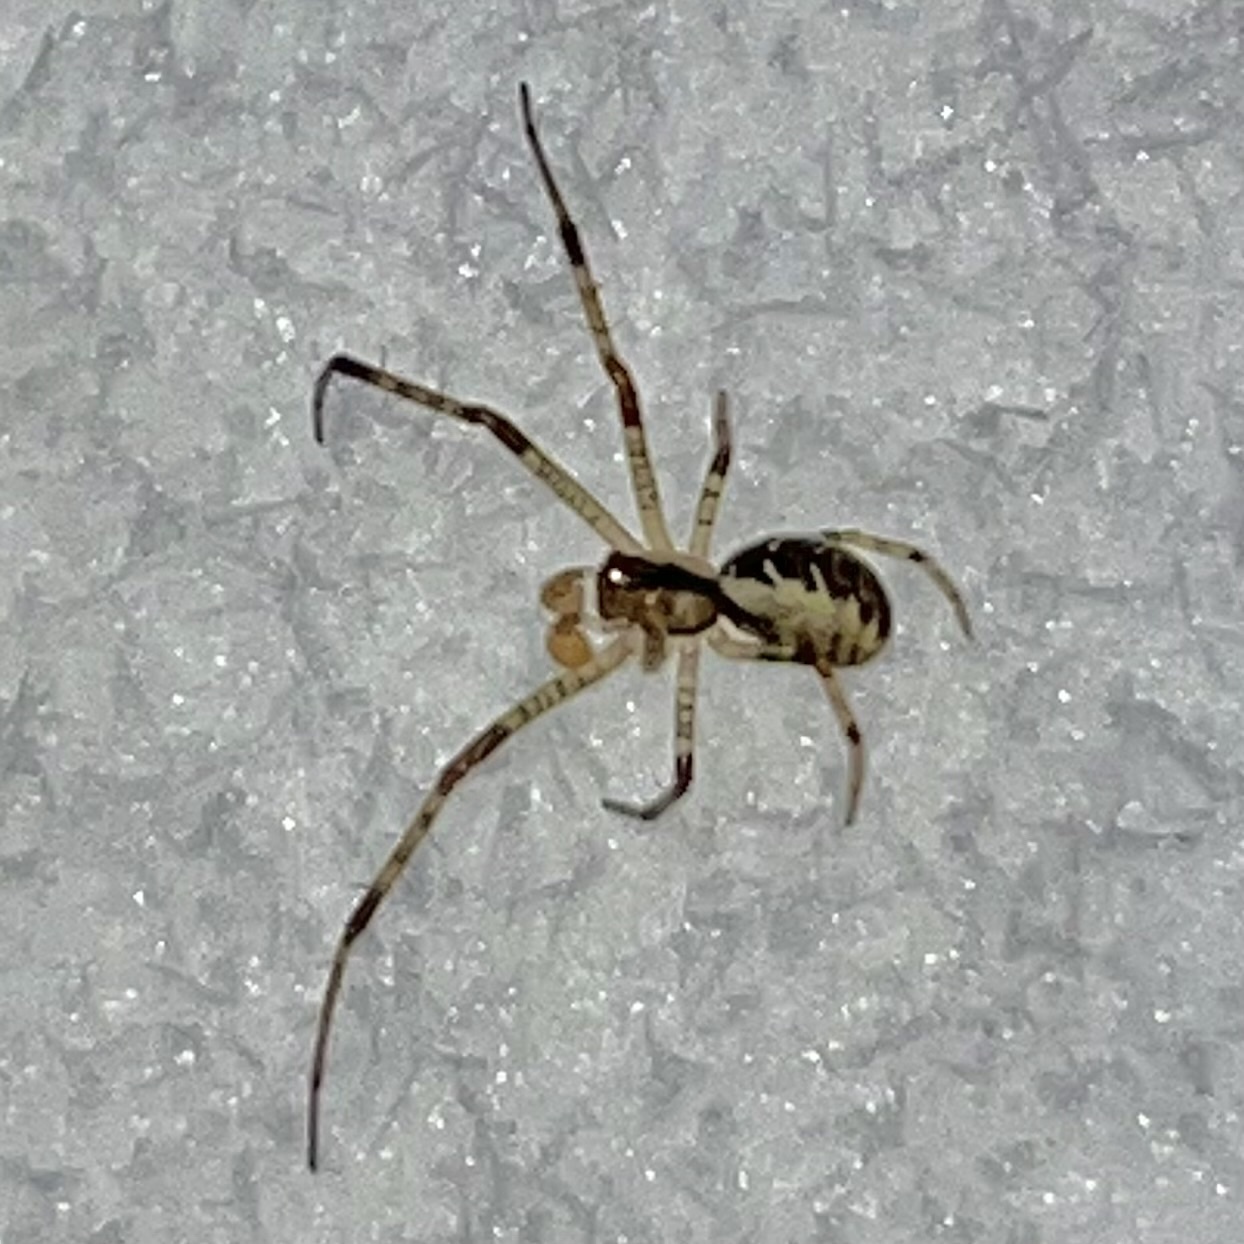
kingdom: Animalia
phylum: Arthropoda
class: Arachnida
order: Araneae
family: Linyphiidae
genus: Pityohyphantes
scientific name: Pityohyphantes phrygianus
